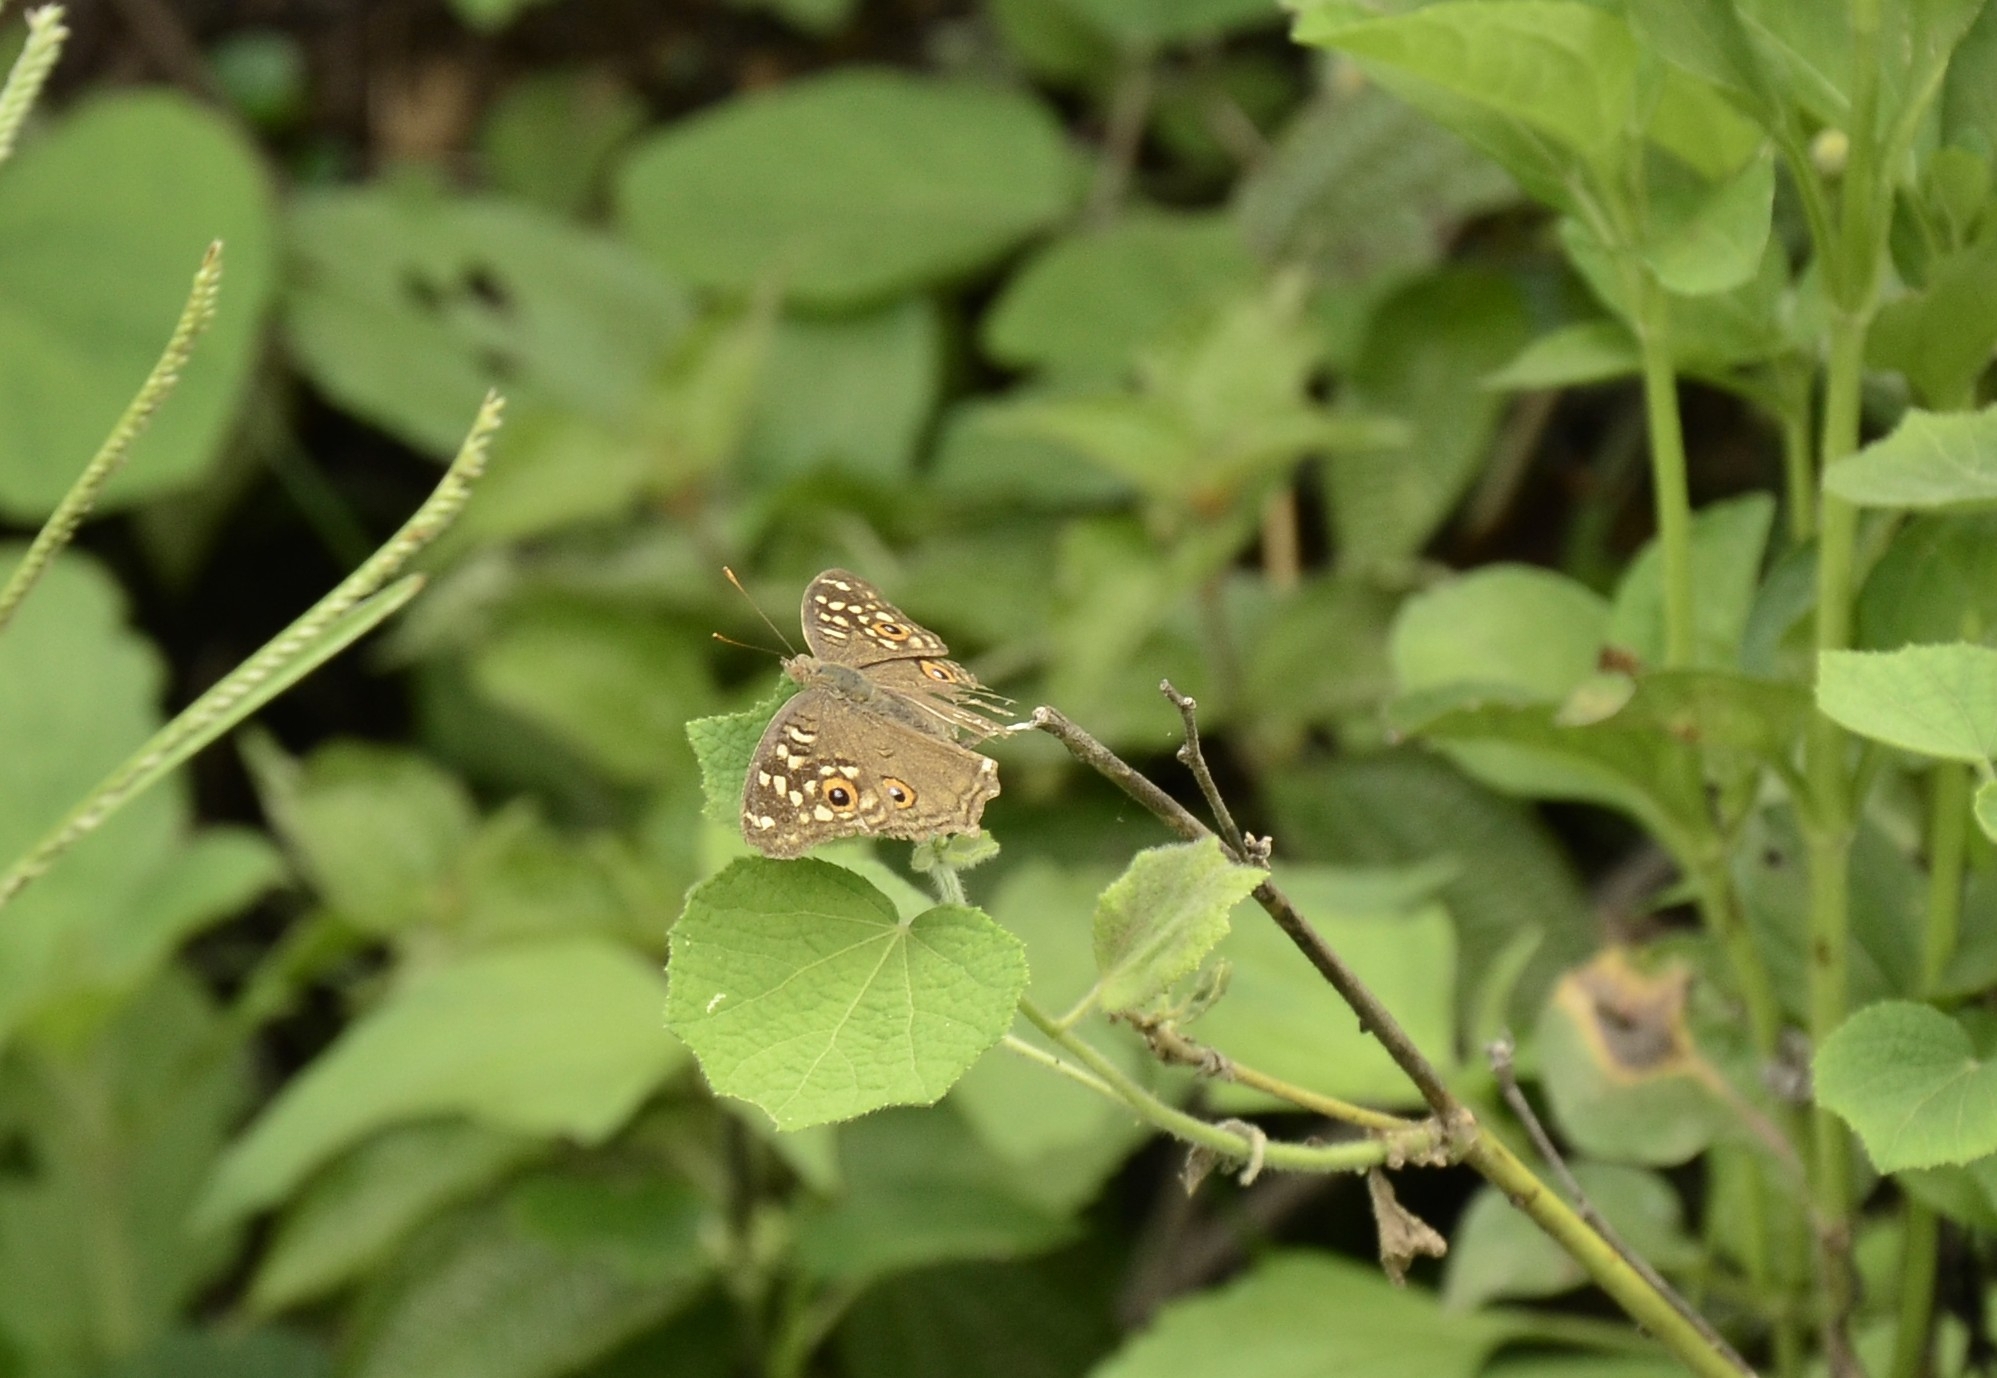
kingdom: Animalia
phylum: Arthropoda
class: Insecta
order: Lepidoptera
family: Nymphalidae
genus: Junonia
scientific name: Junonia lemonias
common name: Lemon pansy
